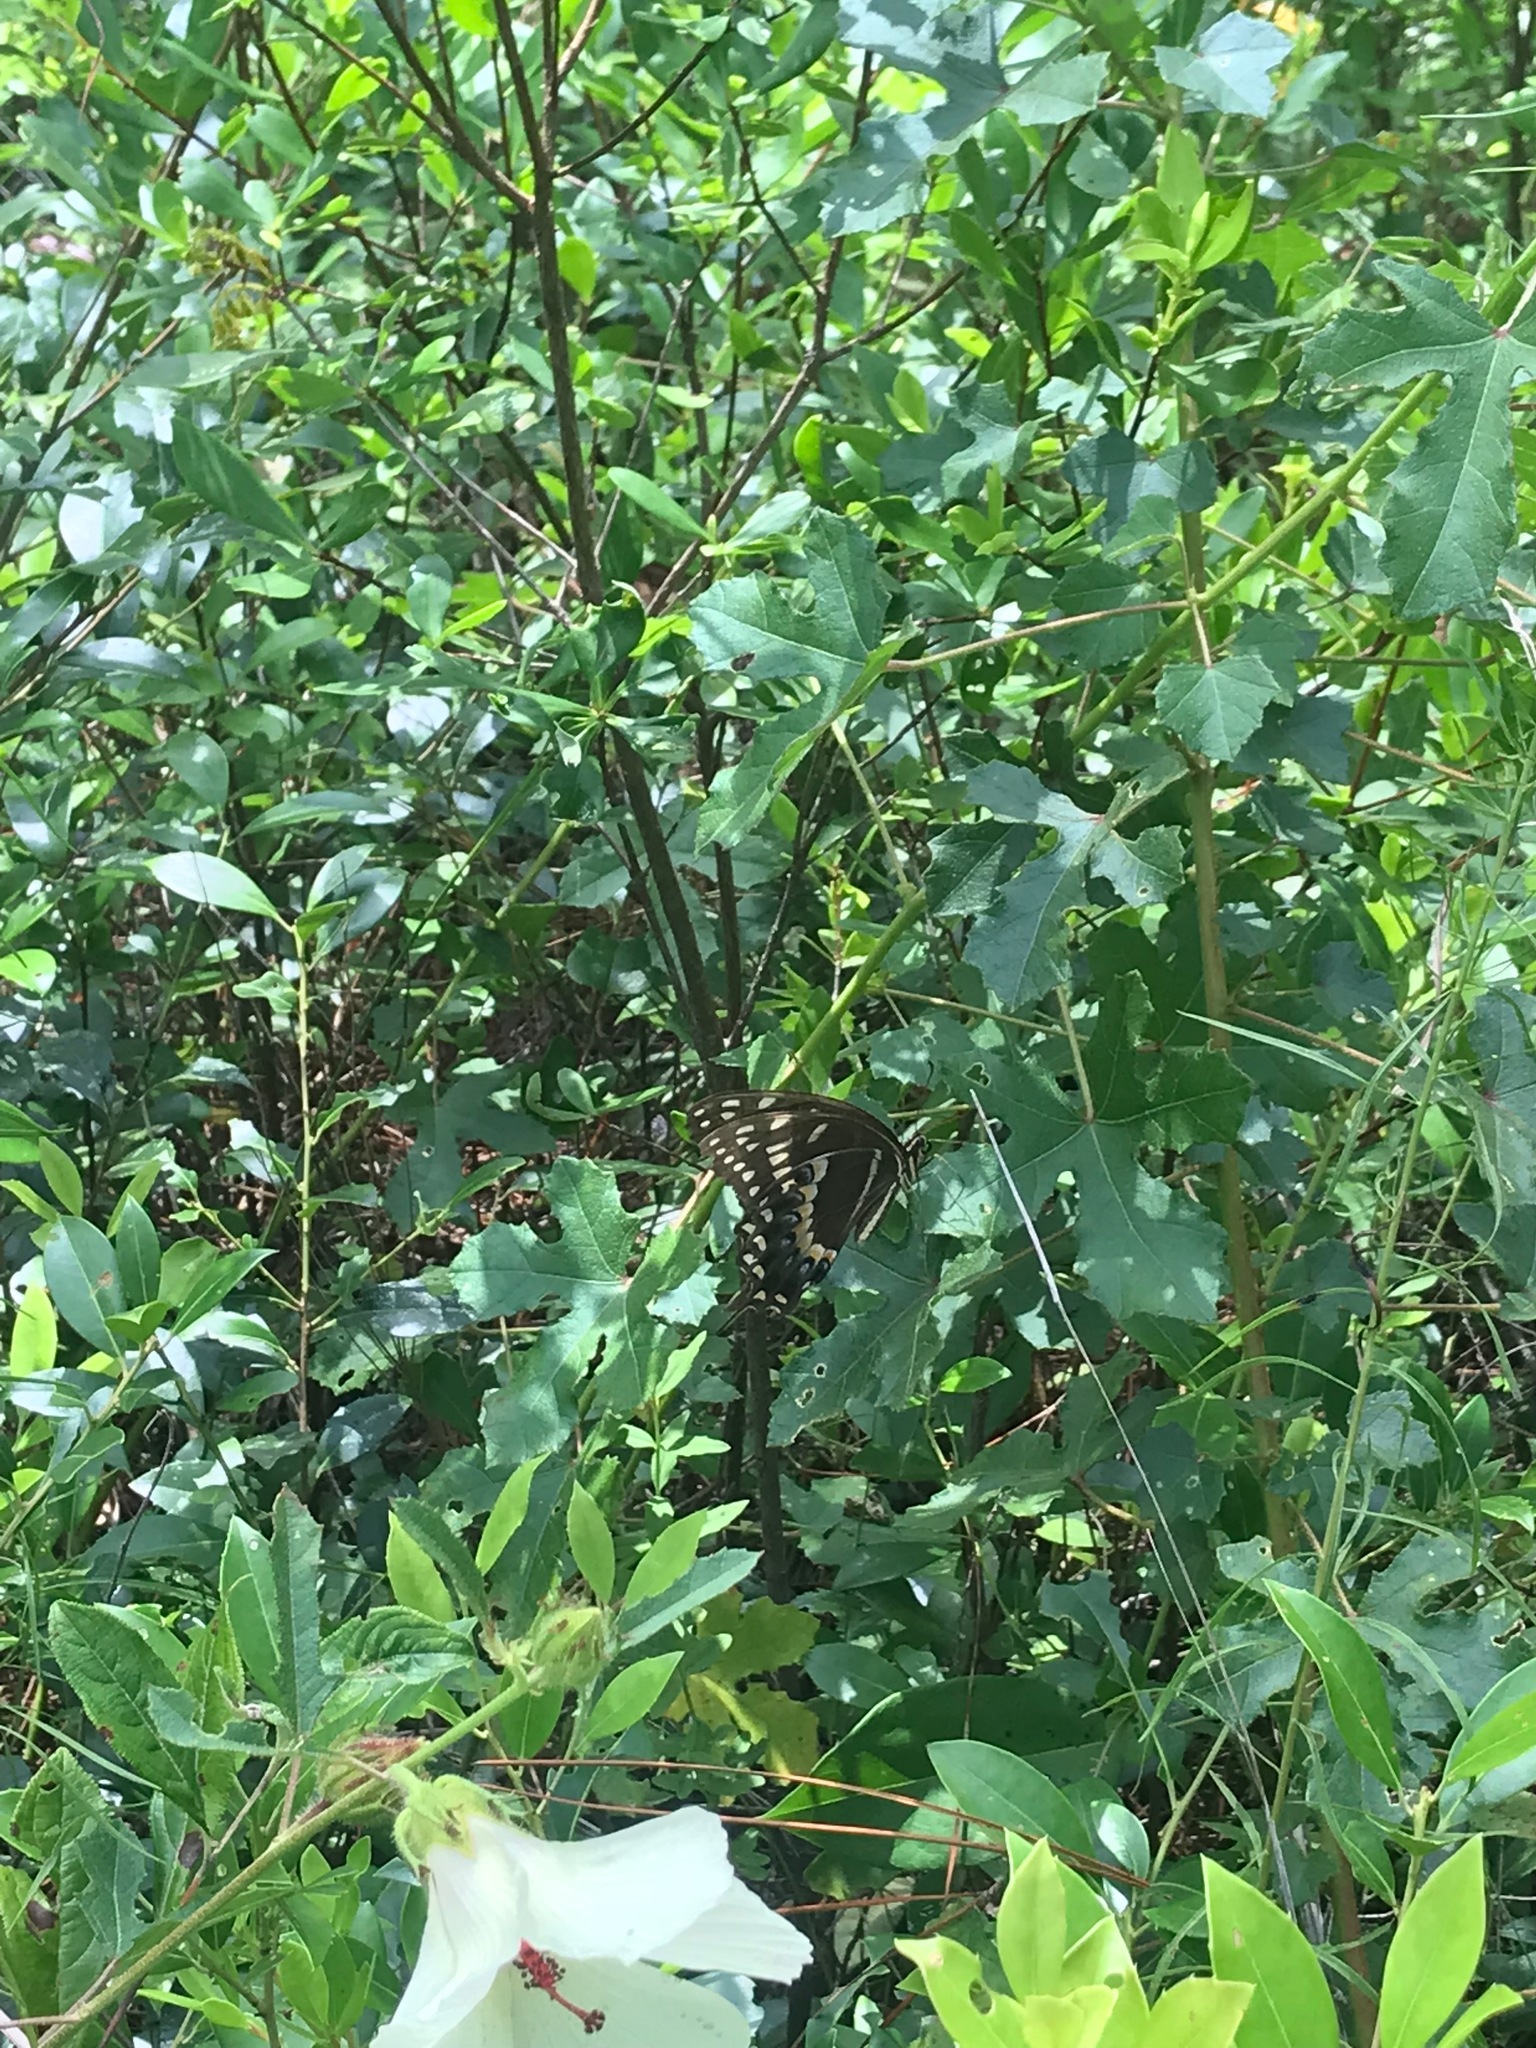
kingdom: Animalia
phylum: Arthropoda
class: Insecta
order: Lepidoptera
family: Papilionidae
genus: Papilio
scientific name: Papilio palamedes
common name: Palamedes swallowtail
